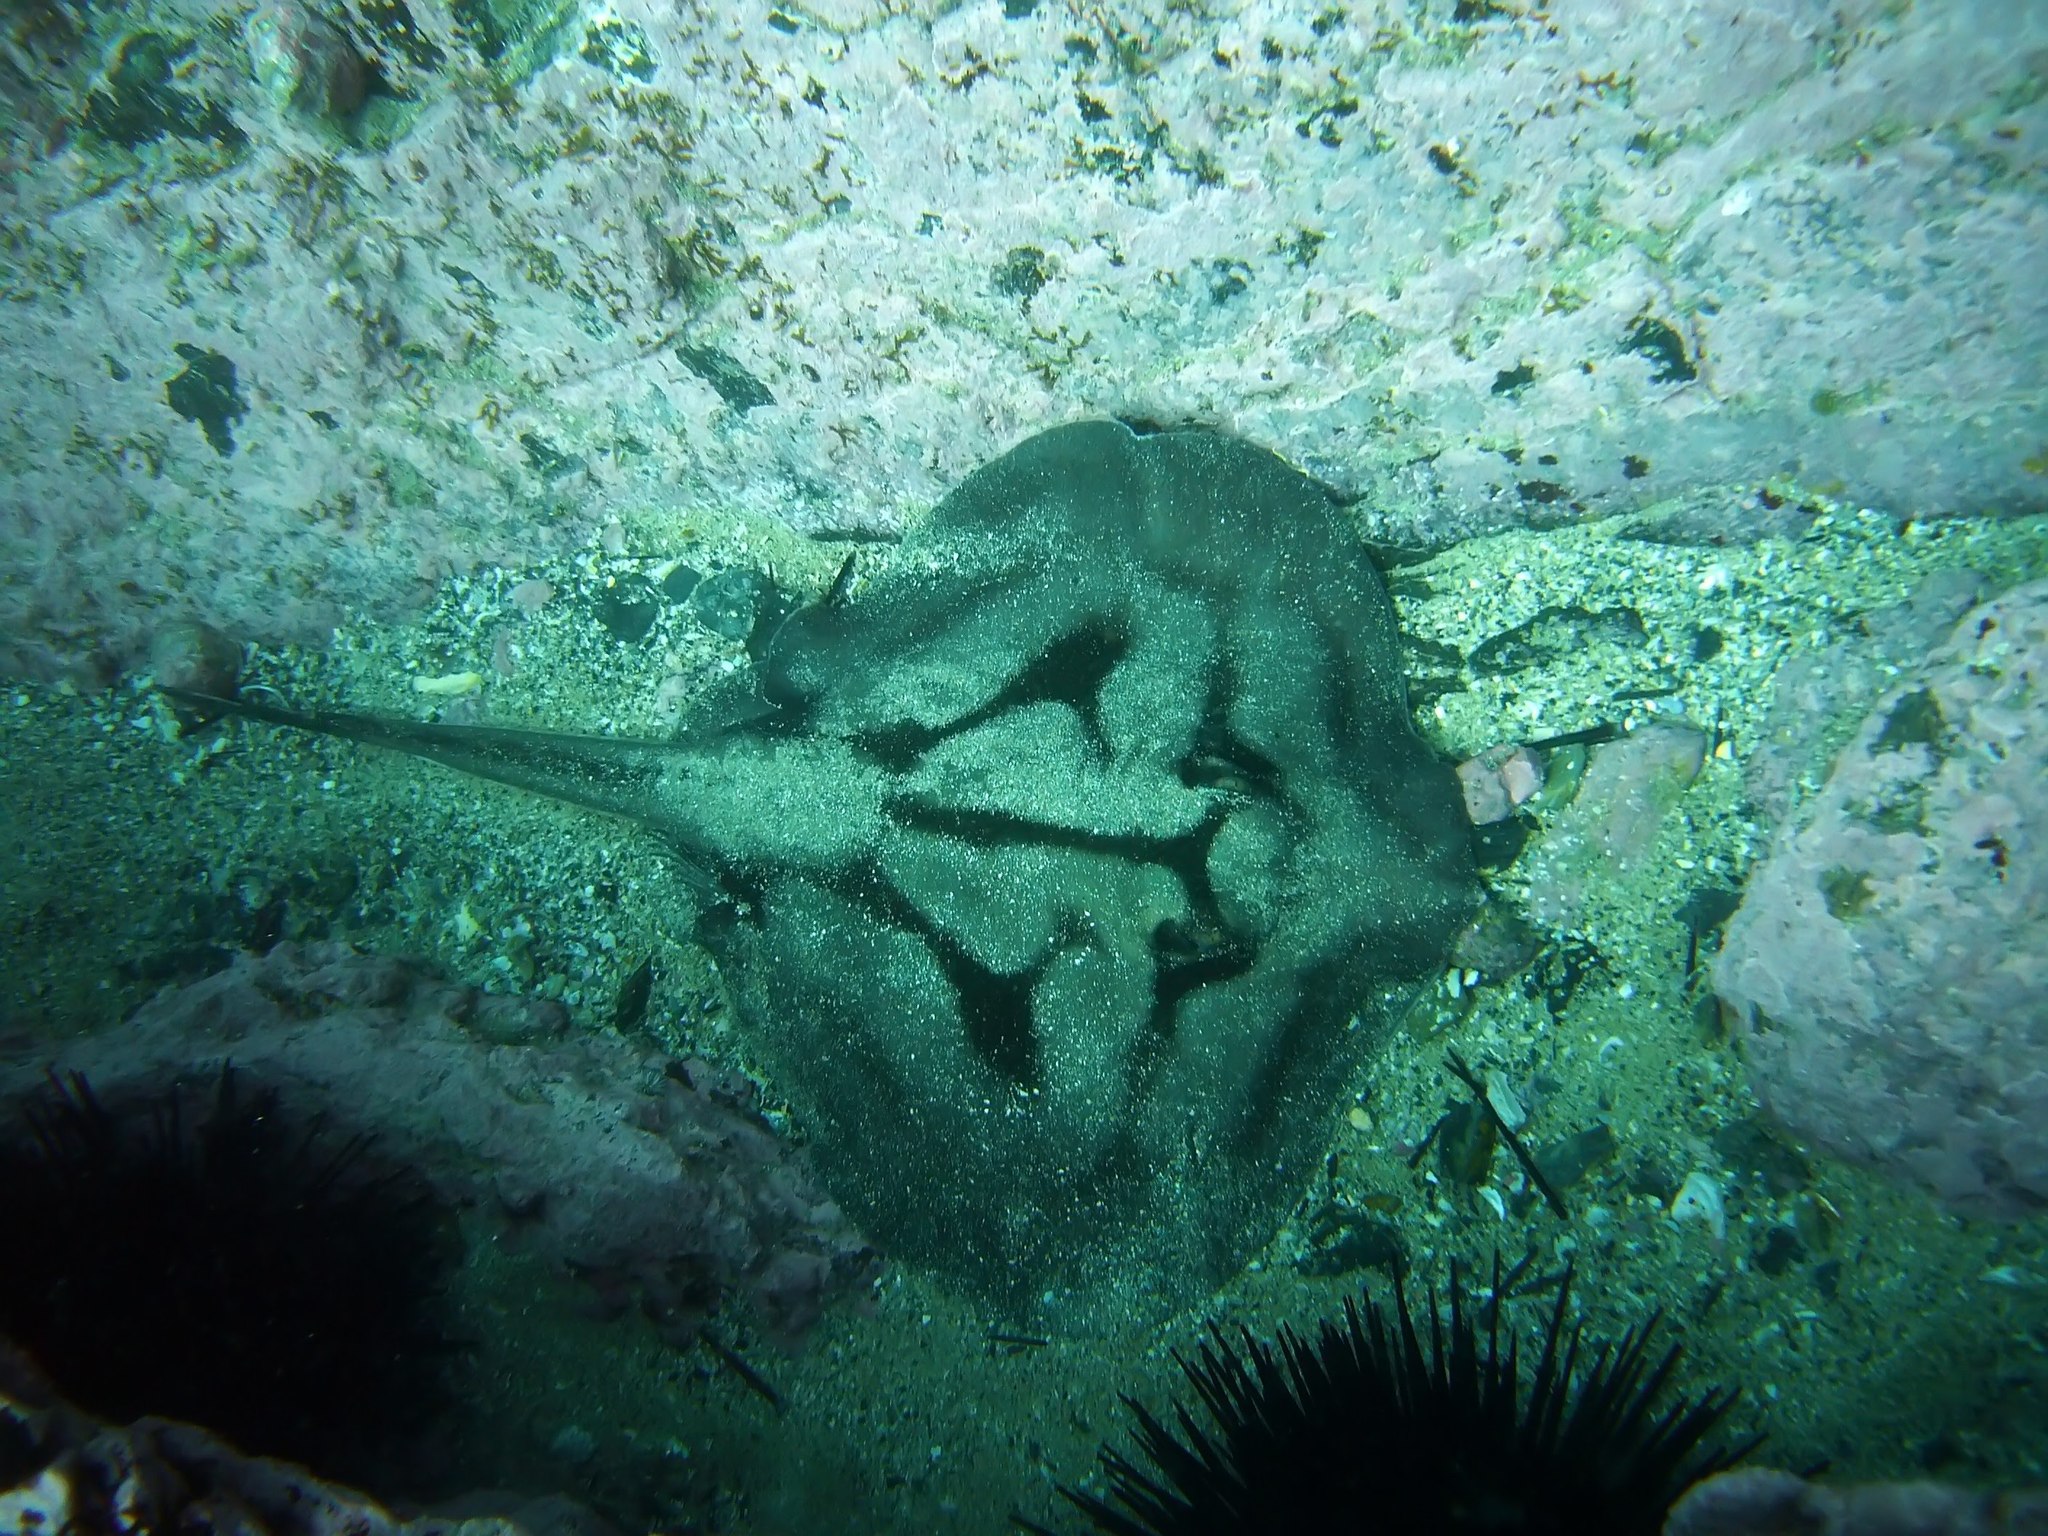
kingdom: Animalia
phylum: Chordata
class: Elasmobranchii
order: Myliobatiformes
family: Urolophidae
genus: Urolophus
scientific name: Urolophus kapalensis
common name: Kapala stingaree
